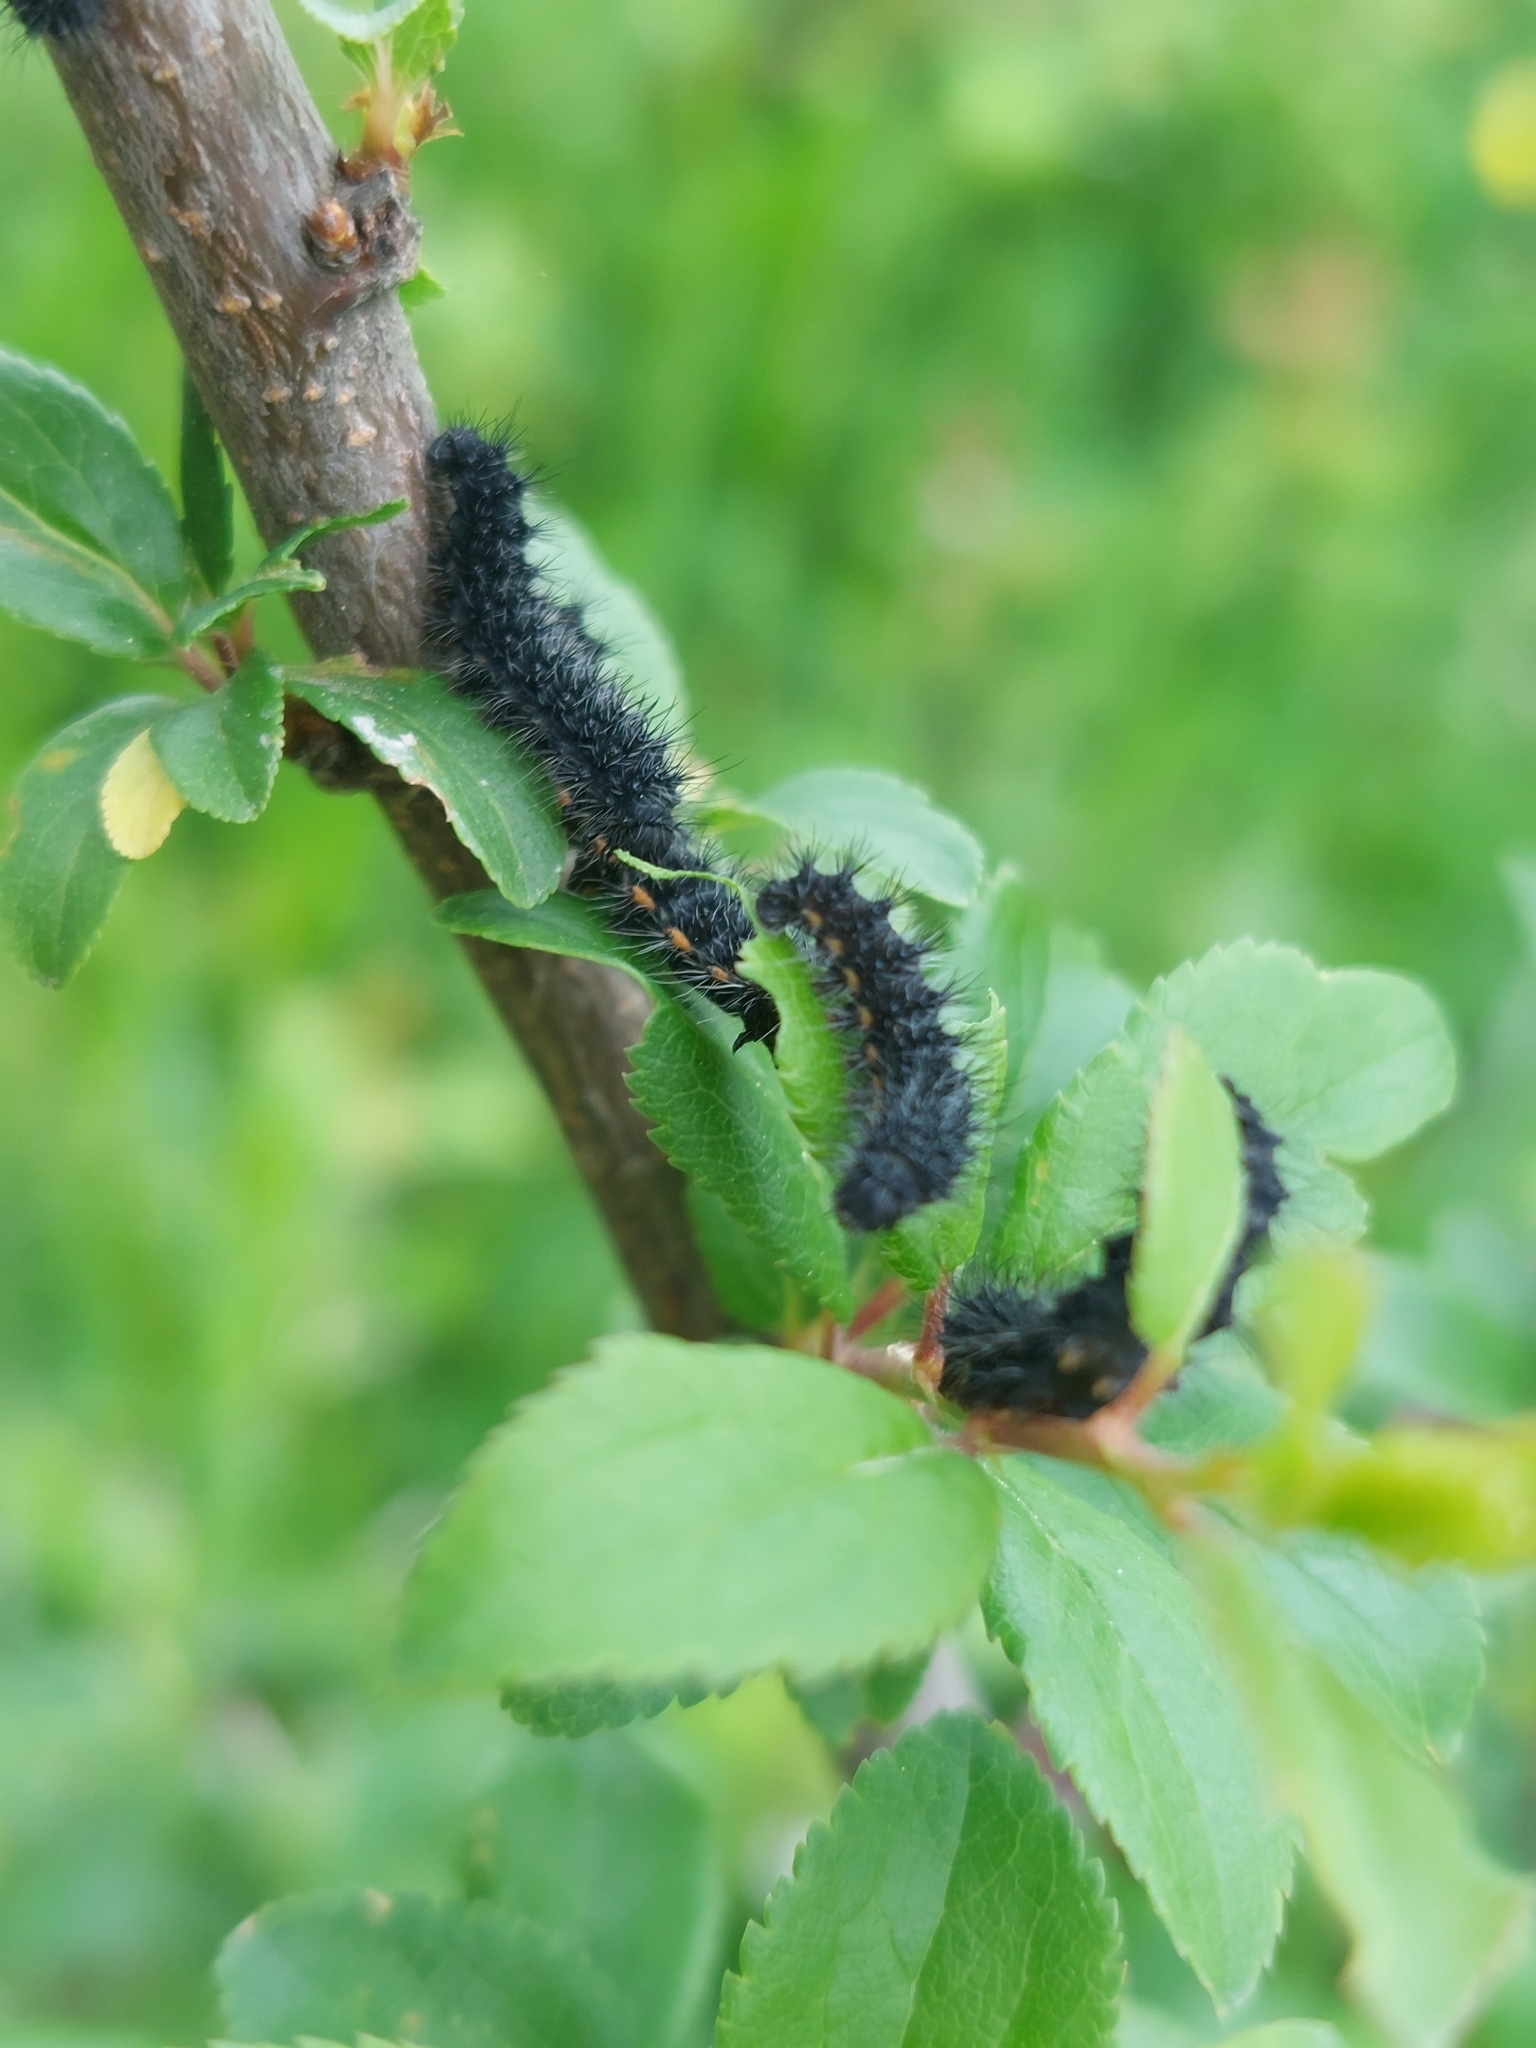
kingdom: Animalia
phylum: Arthropoda
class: Insecta
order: Lepidoptera
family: Saturniidae
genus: Saturnia
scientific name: Saturnia pavonia
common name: Emperor moth
